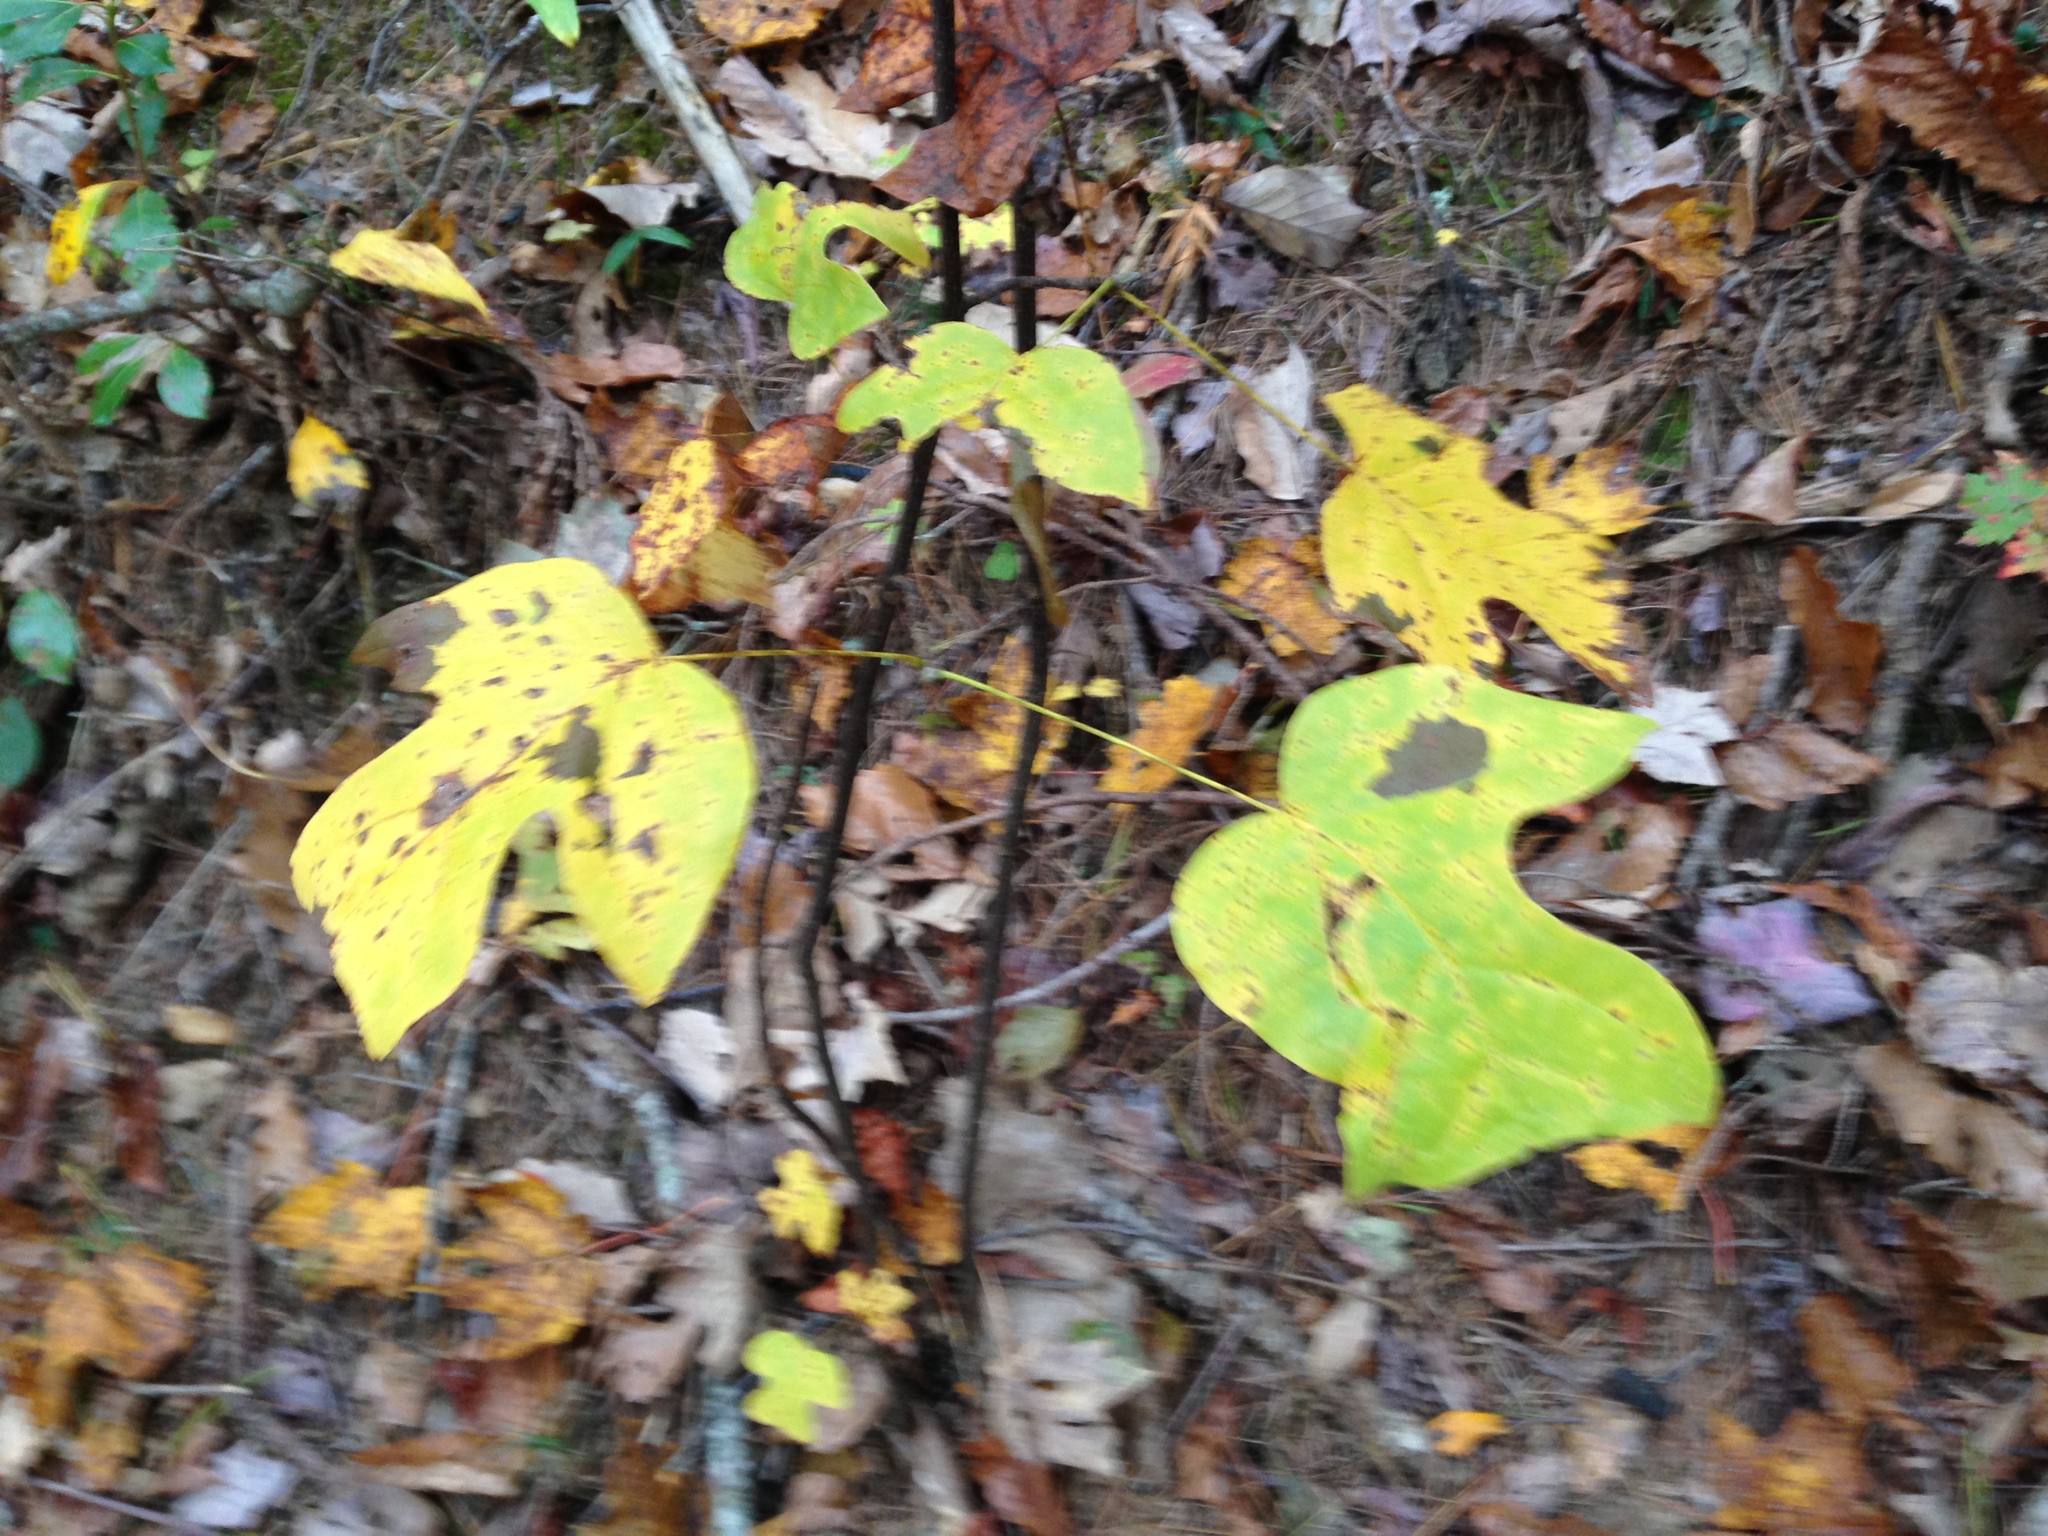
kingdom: Plantae
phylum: Tracheophyta
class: Magnoliopsida
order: Magnoliales
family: Magnoliaceae
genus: Liriodendron
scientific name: Liriodendron tulipifera
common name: Tulip tree
